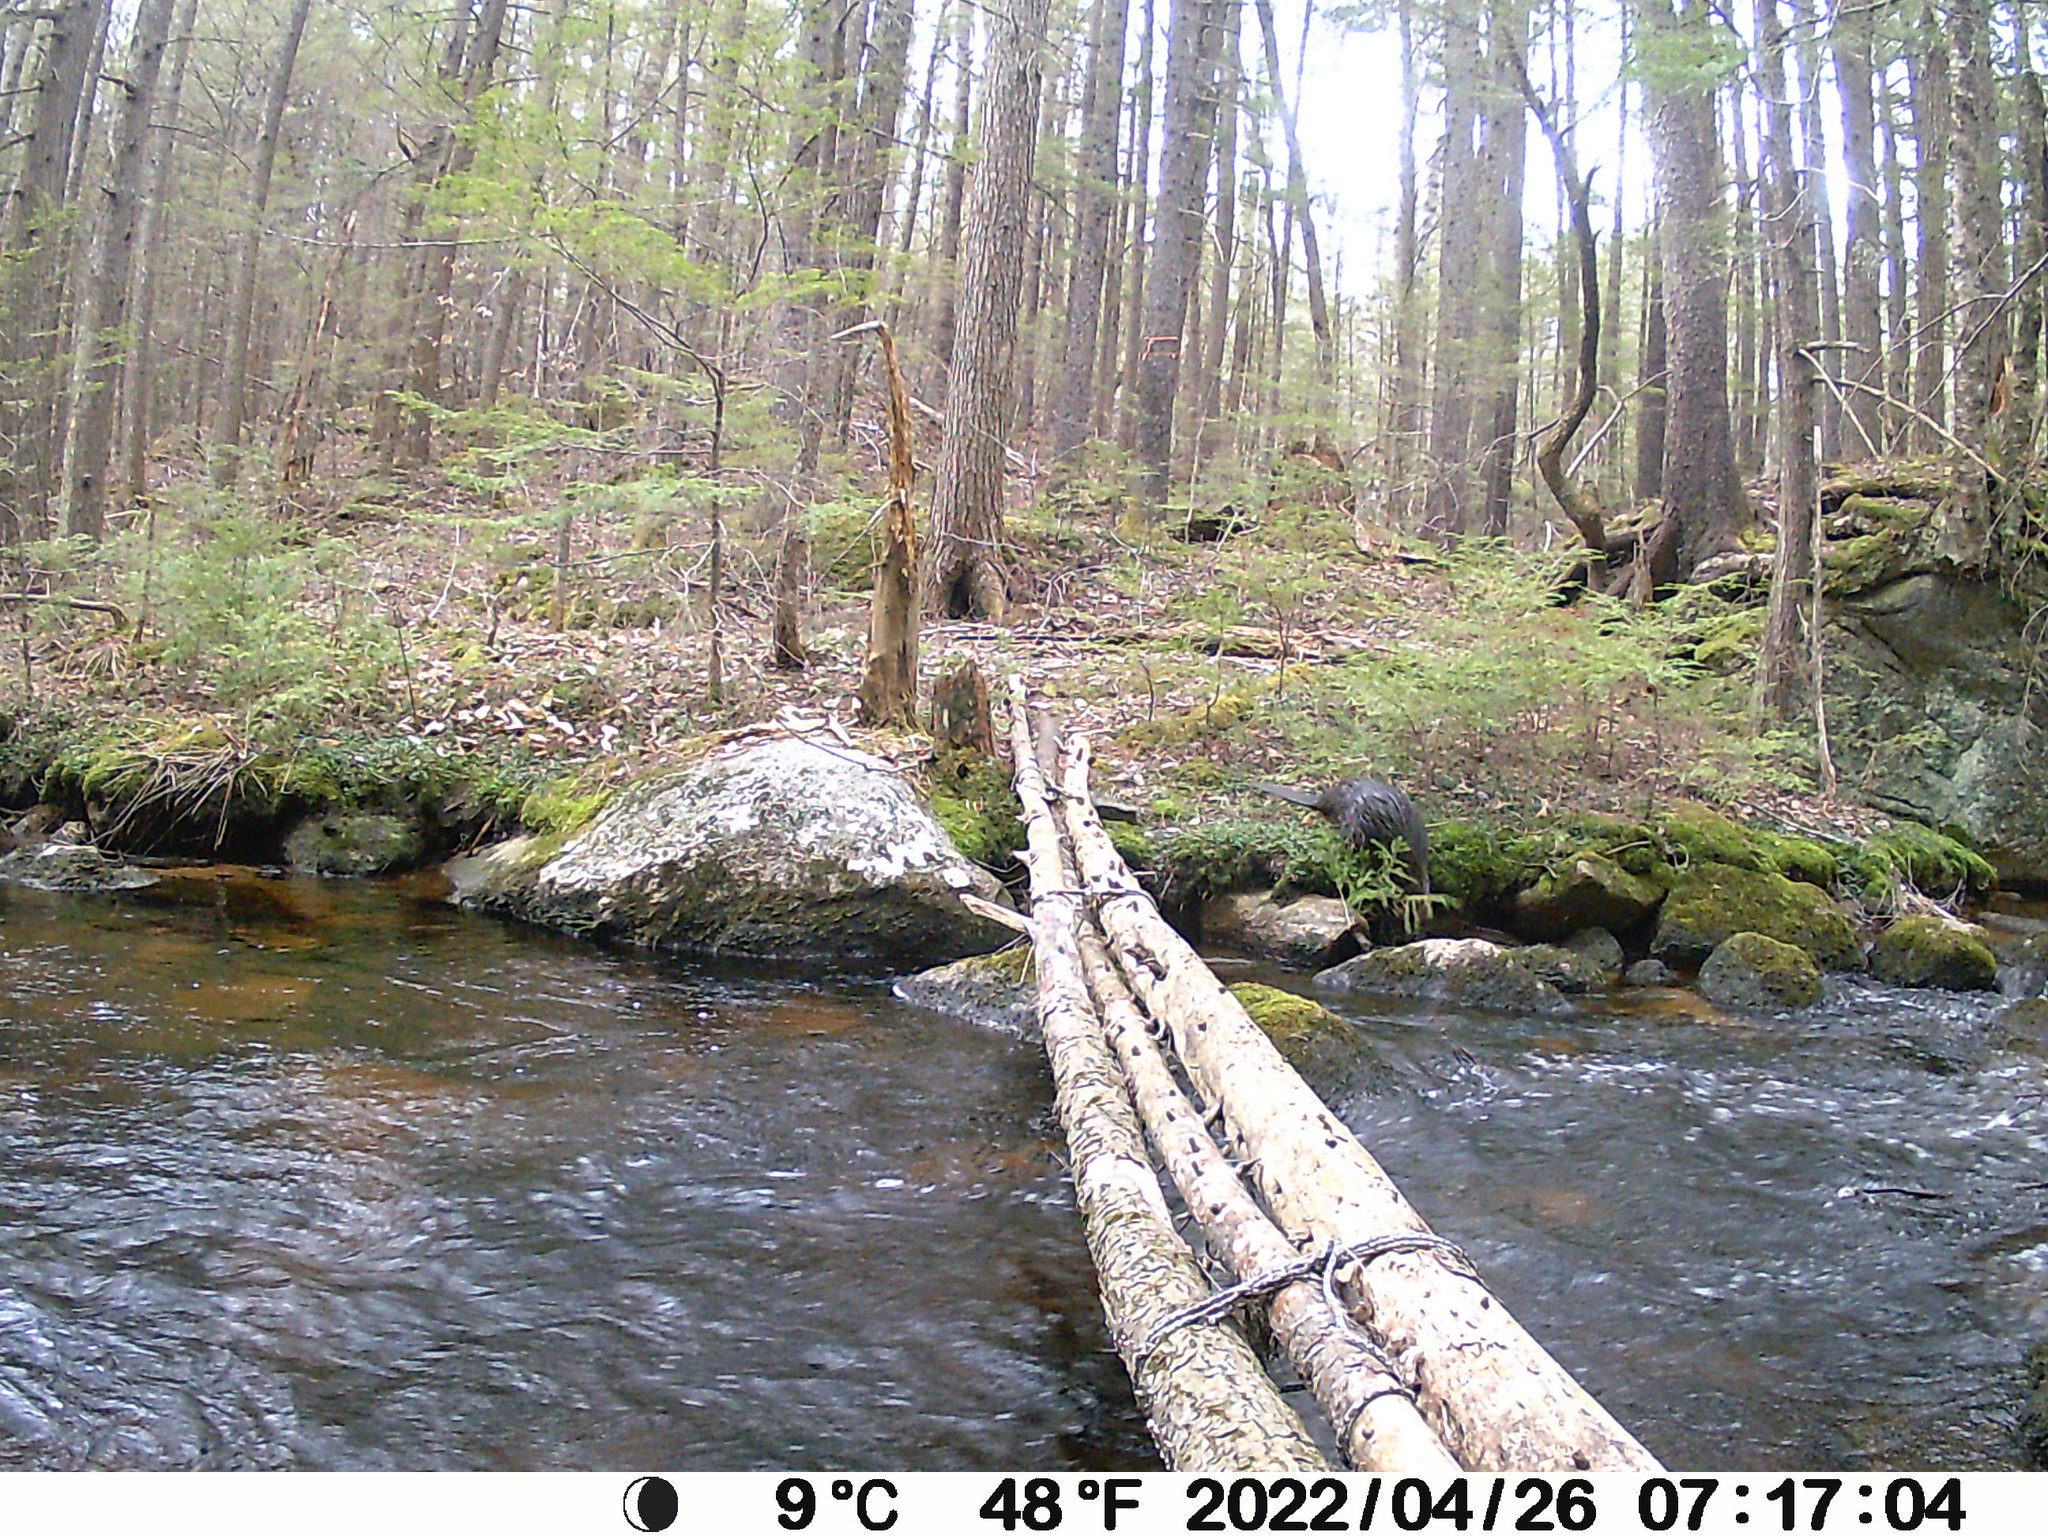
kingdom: Animalia
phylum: Chordata
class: Mammalia
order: Rodentia
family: Castoridae
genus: Castor
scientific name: Castor canadensis
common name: American beaver
